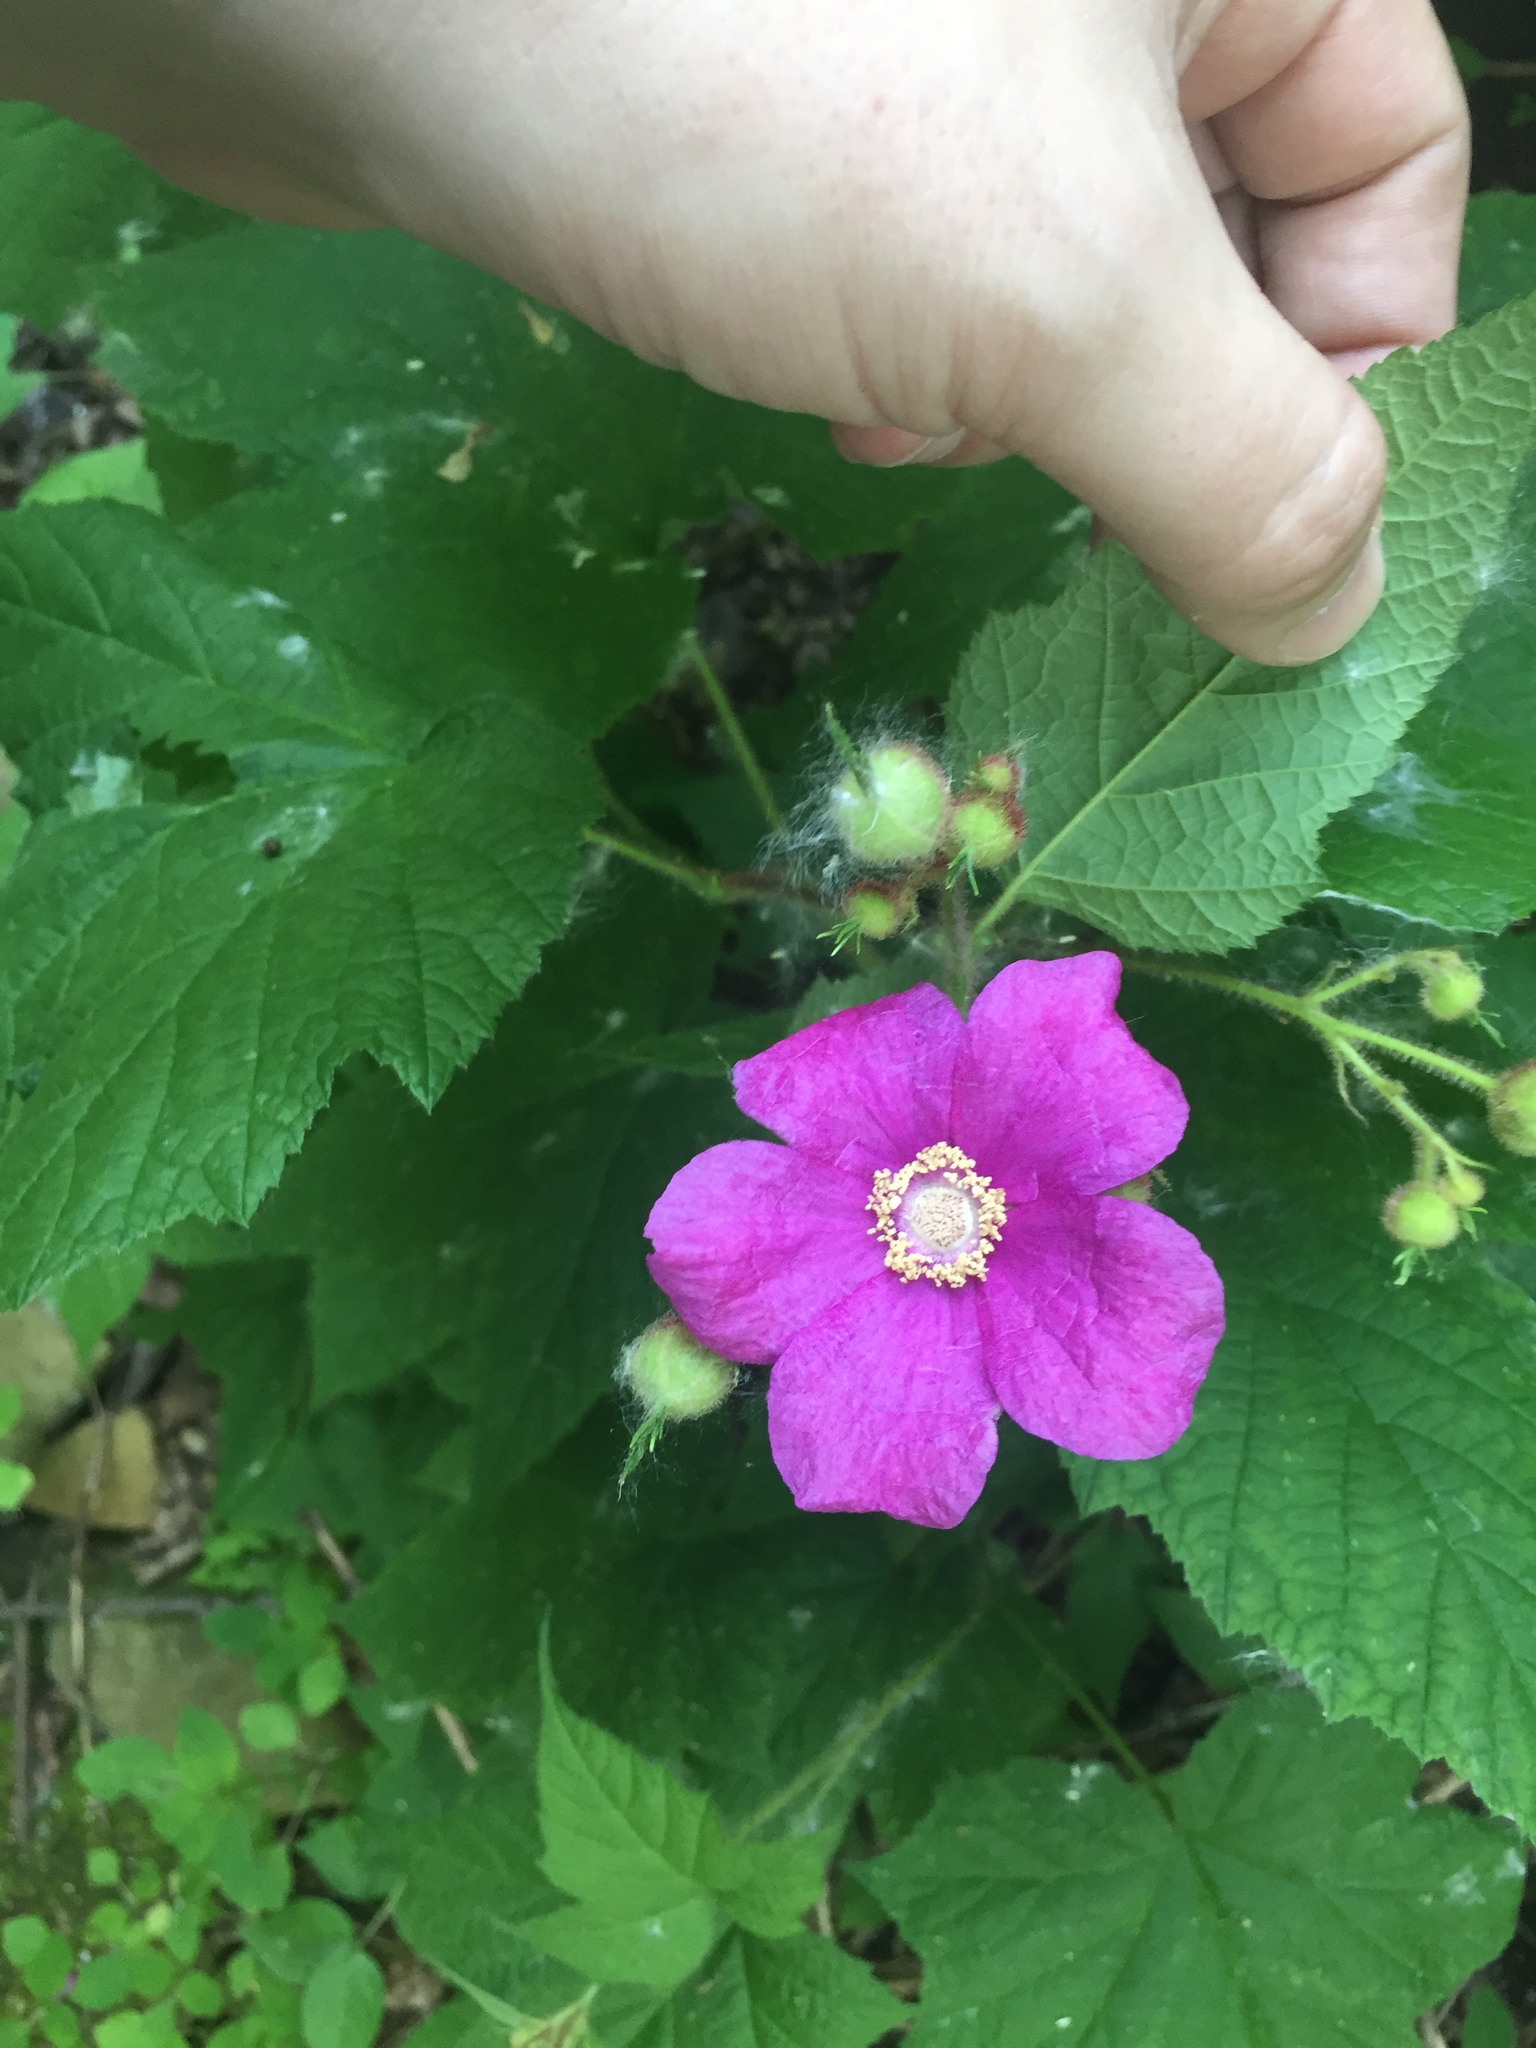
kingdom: Plantae
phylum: Tracheophyta
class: Magnoliopsida
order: Rosales
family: Rosaceae
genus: Rubus
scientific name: Rubus odoratus
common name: Purple-flowered raspberry
